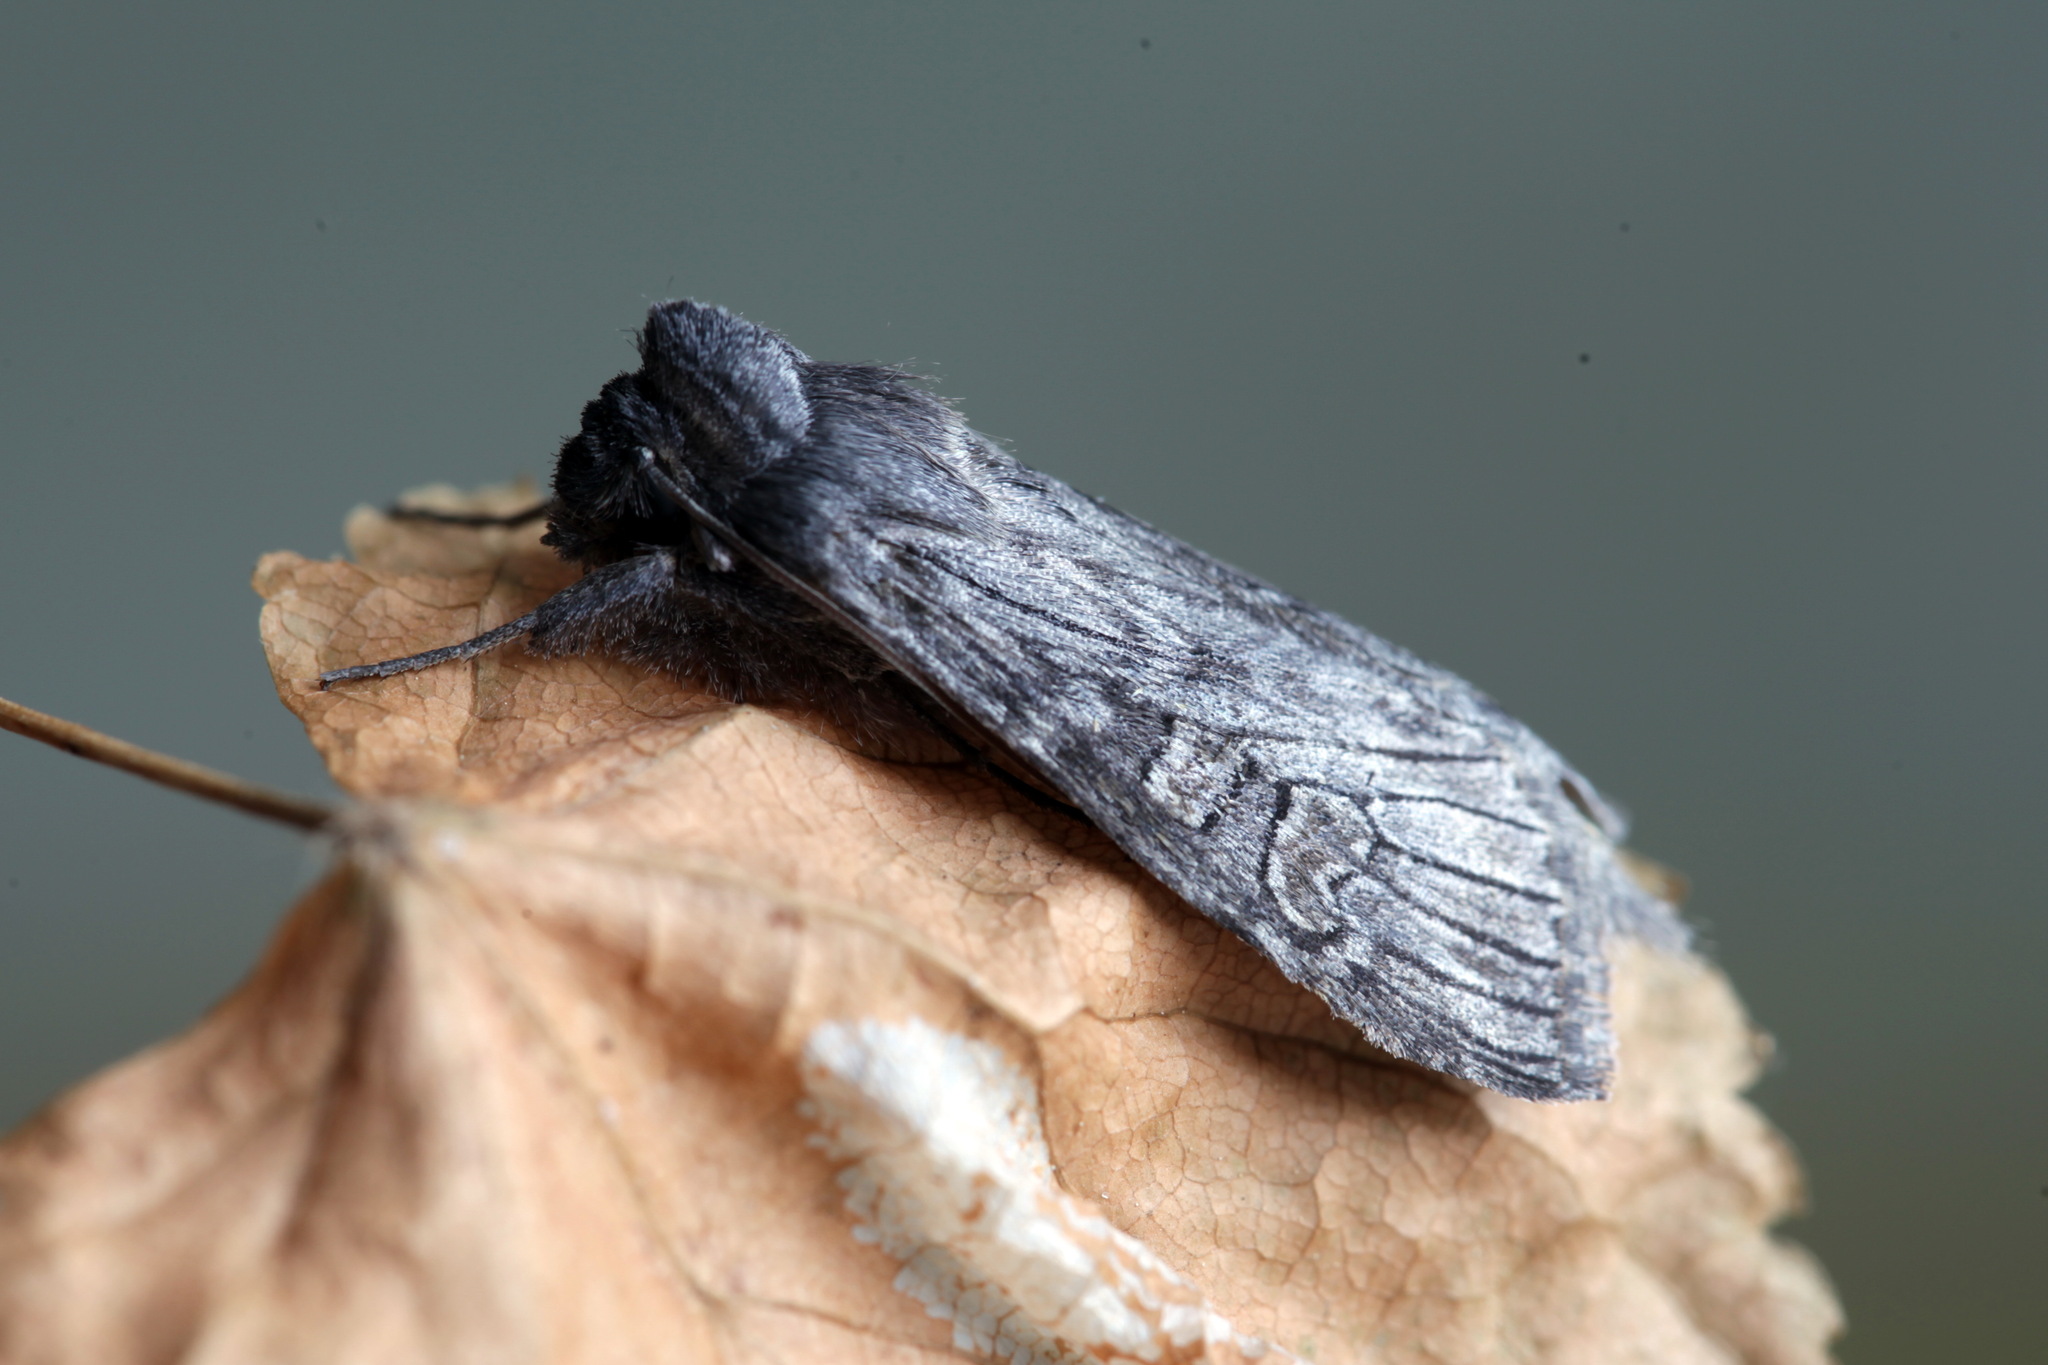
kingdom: Animalia
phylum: Arthropoda
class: Insecta
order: Lepidoptera
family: Noctuidae
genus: Cucullia
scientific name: Cucullia infuscata
